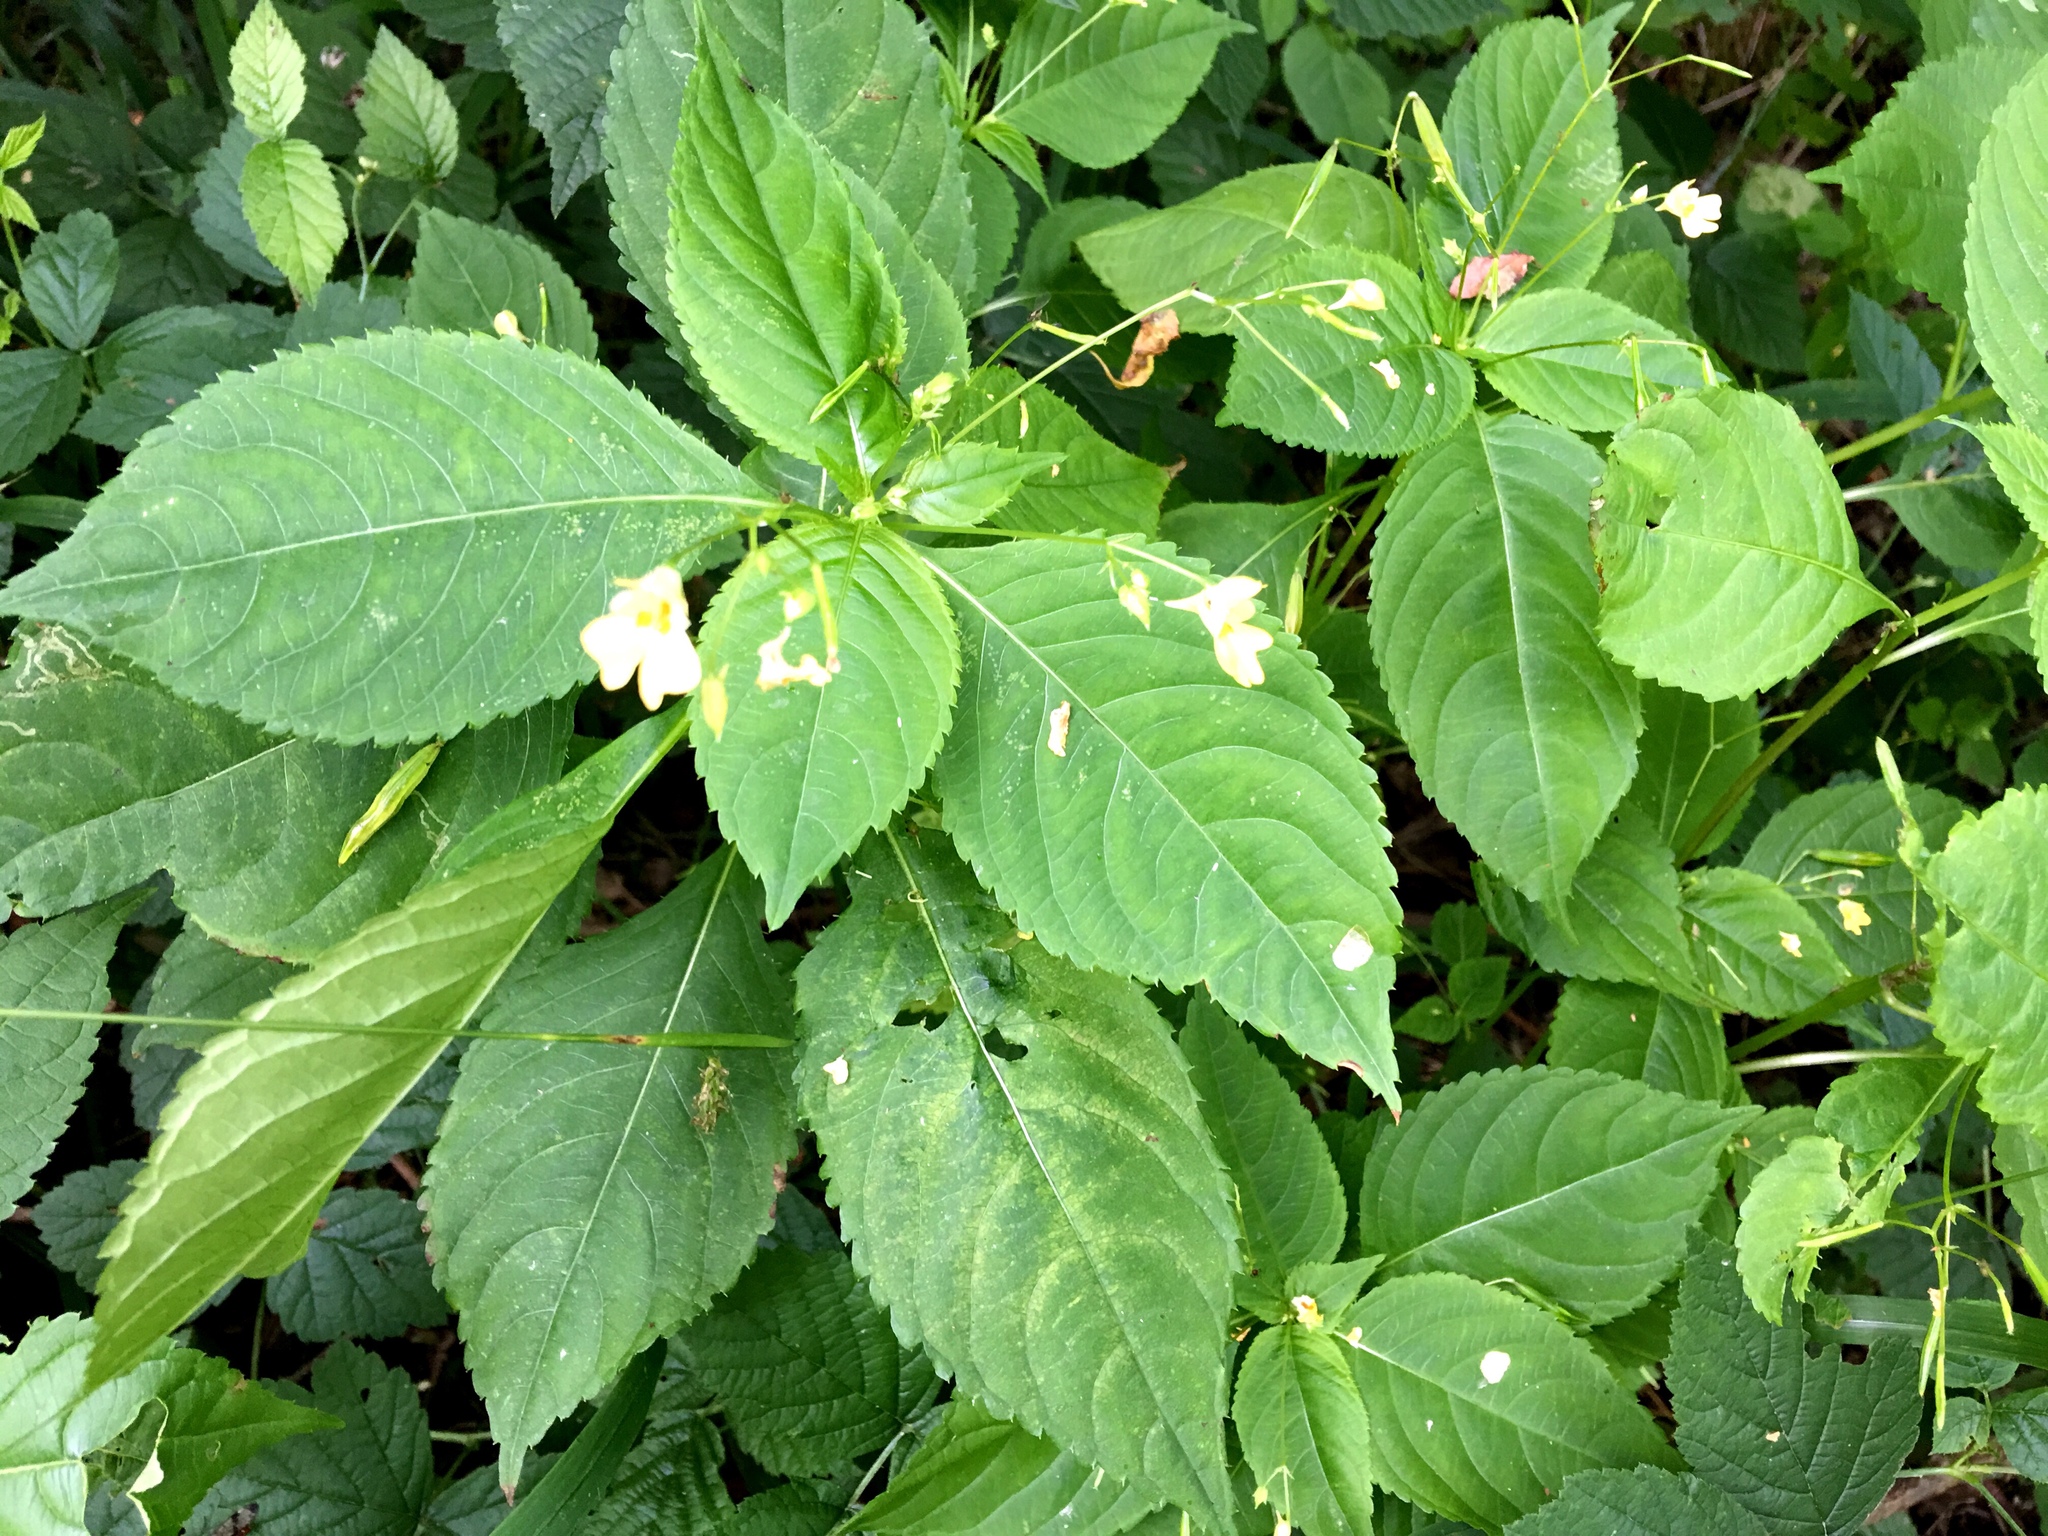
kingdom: Plantae
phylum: Tracheophyta
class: Magnoliopsida
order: Ericales
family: Balsaminaceae
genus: Impatiens
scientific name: Impatiens parviflora
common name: Small balsam
